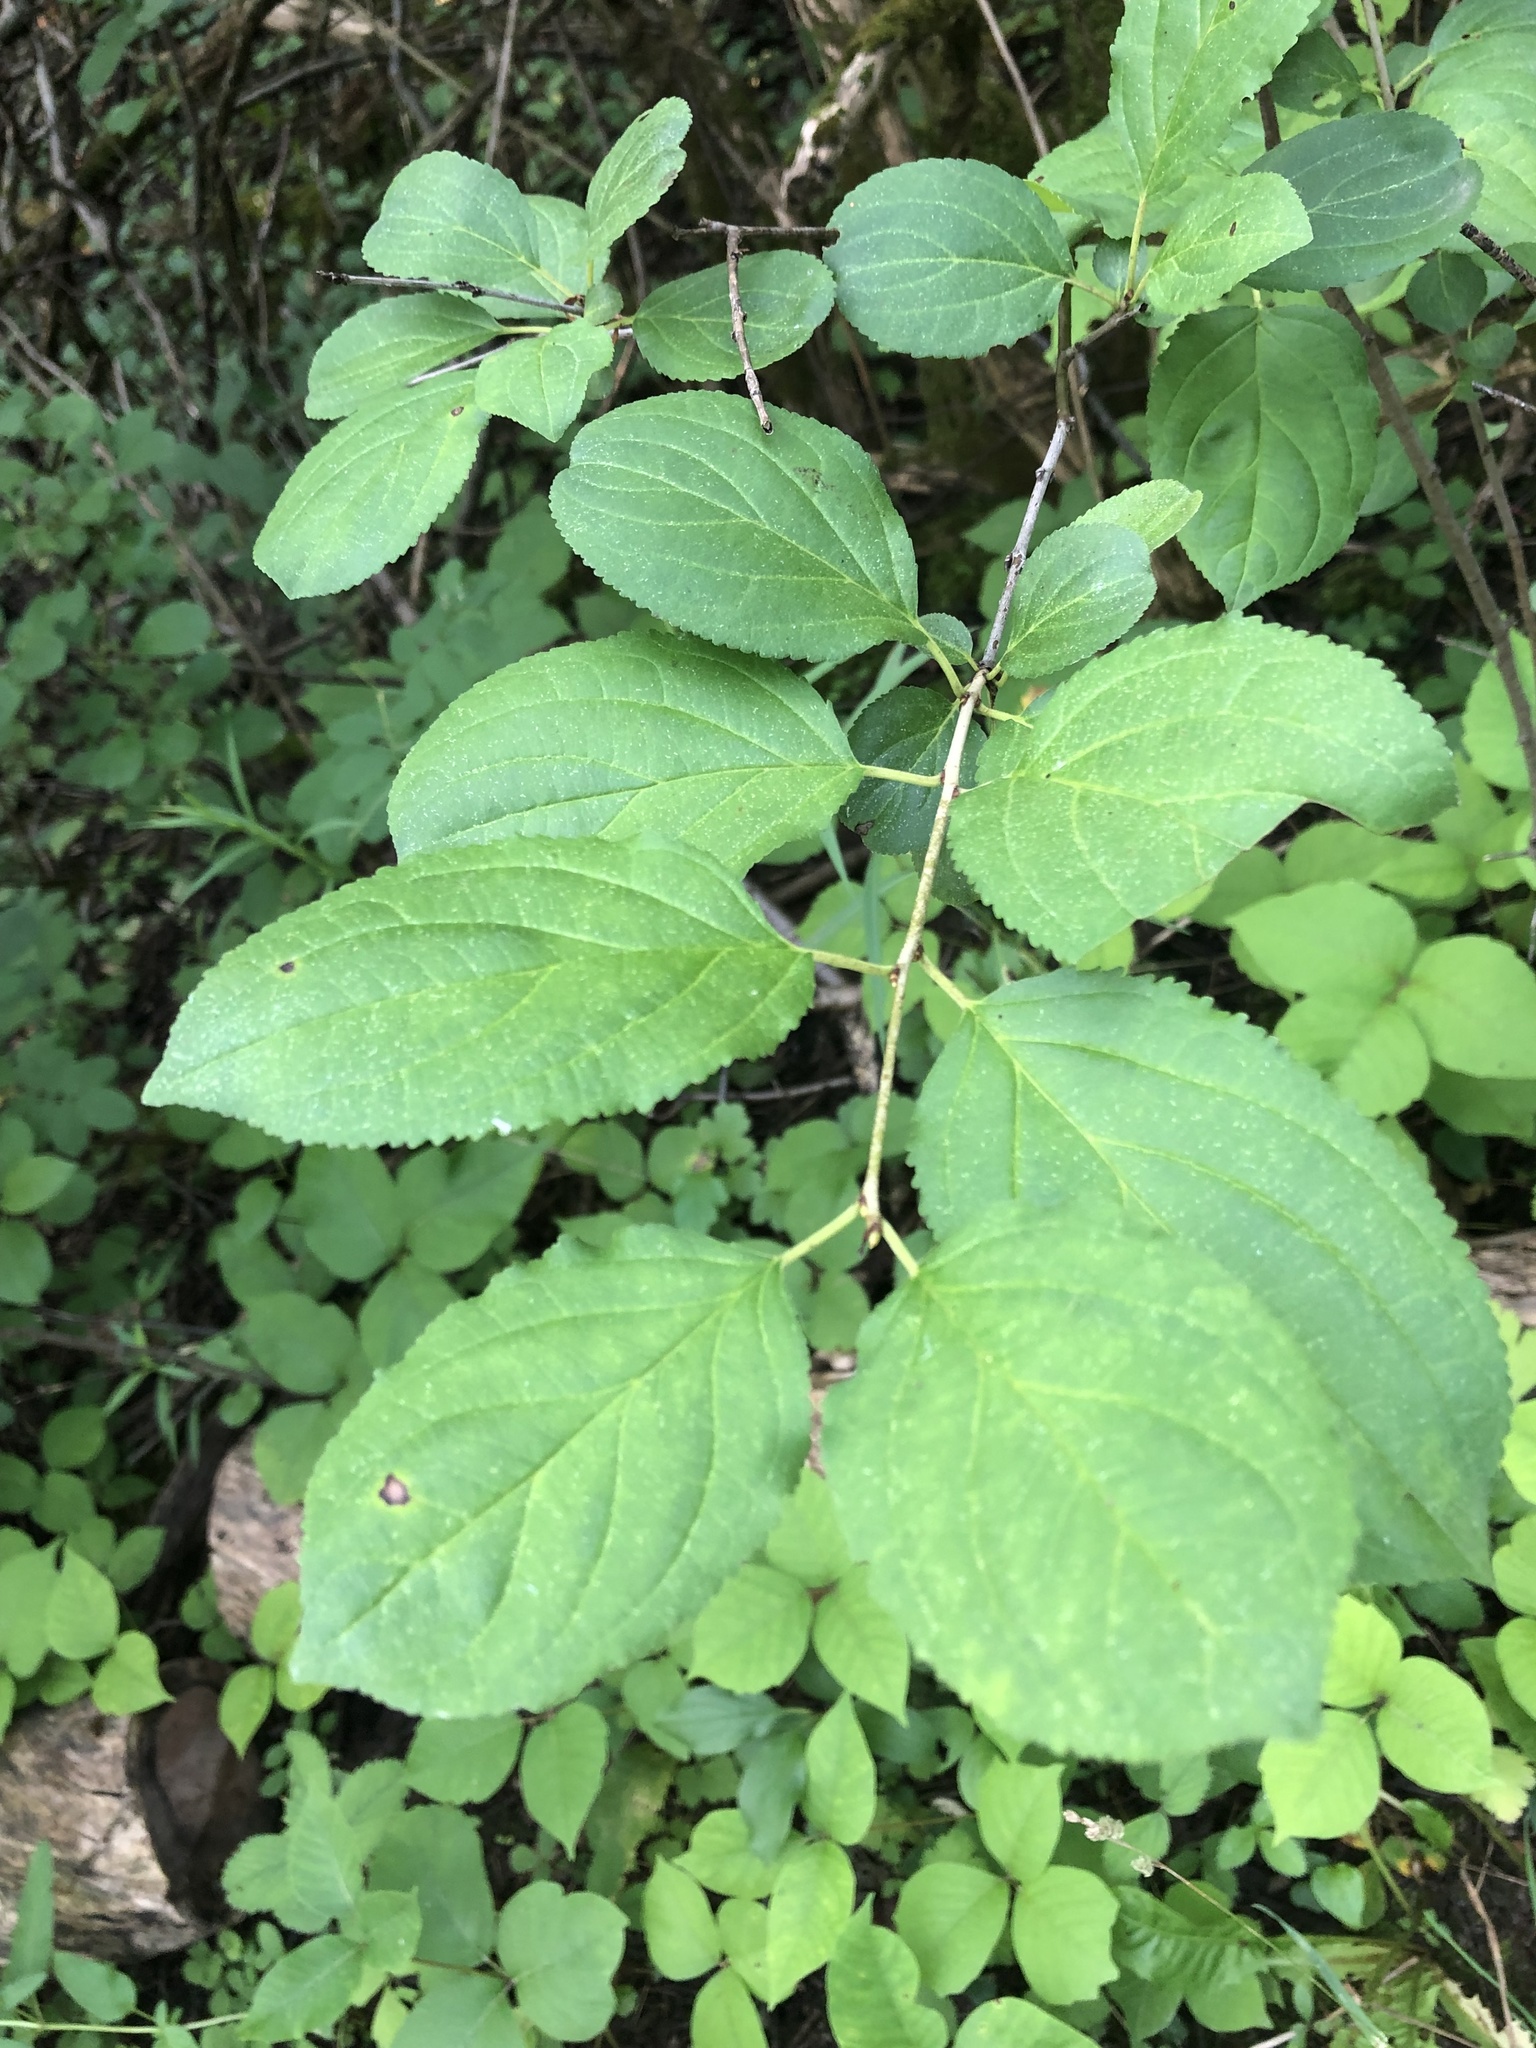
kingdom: Plantae
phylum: Tracheophyta
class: Magnoliopsida
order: Rosales
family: Rhamnaceae
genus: Rhamnus
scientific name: Rhamnus cathartica
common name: Common buckthorn
